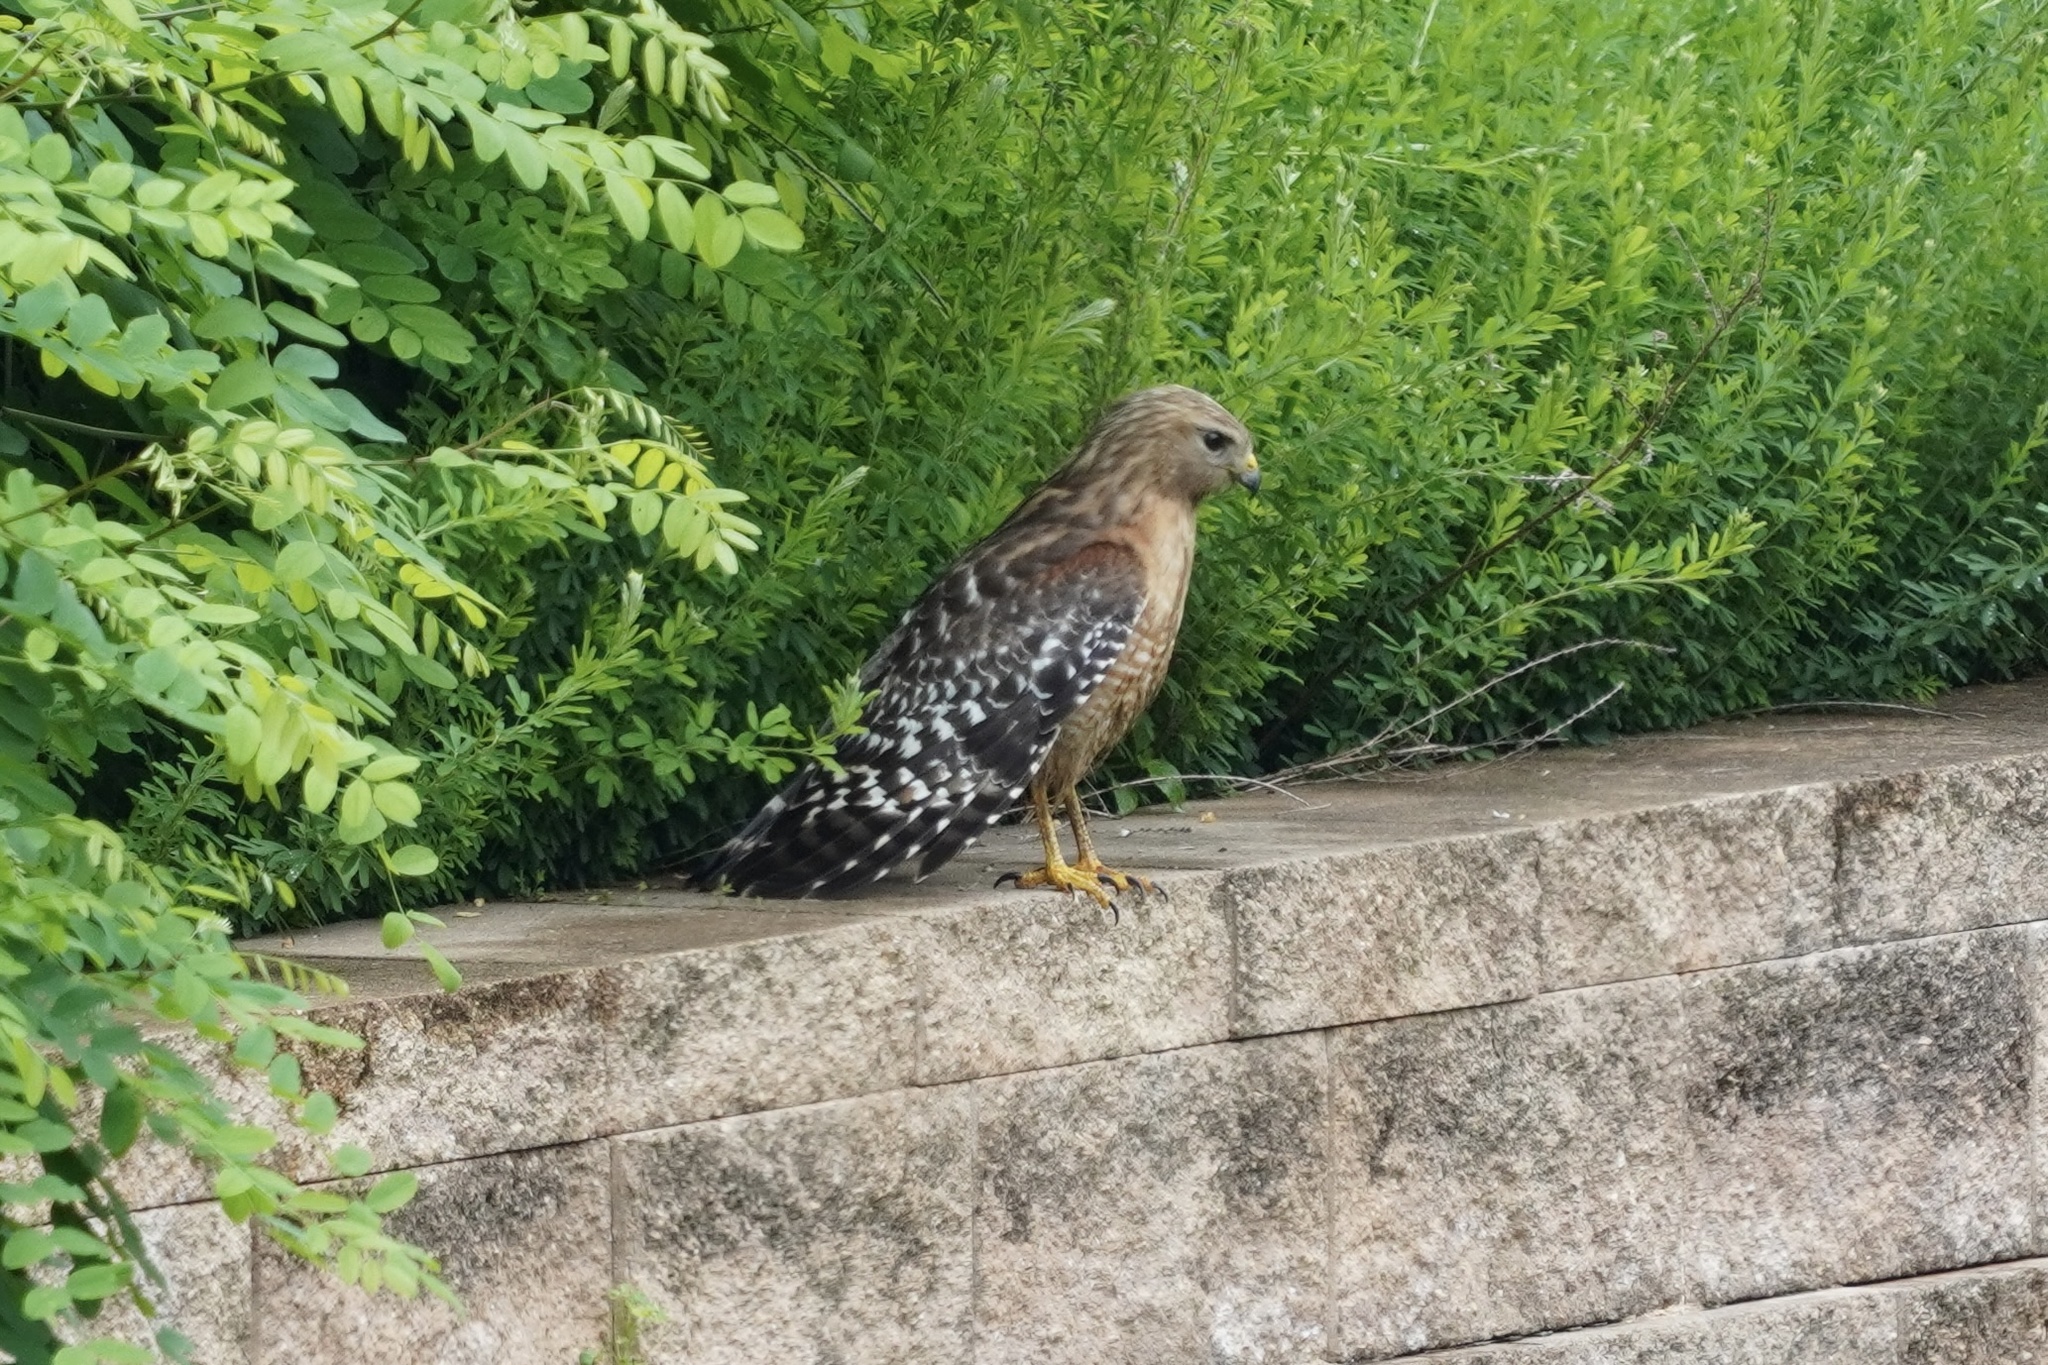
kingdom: Animalia
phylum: Chordata
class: Aves
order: Accipitriformes
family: Accipitridae
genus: Buteo
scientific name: Buteo lineatus
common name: Red-shouldered hawk
